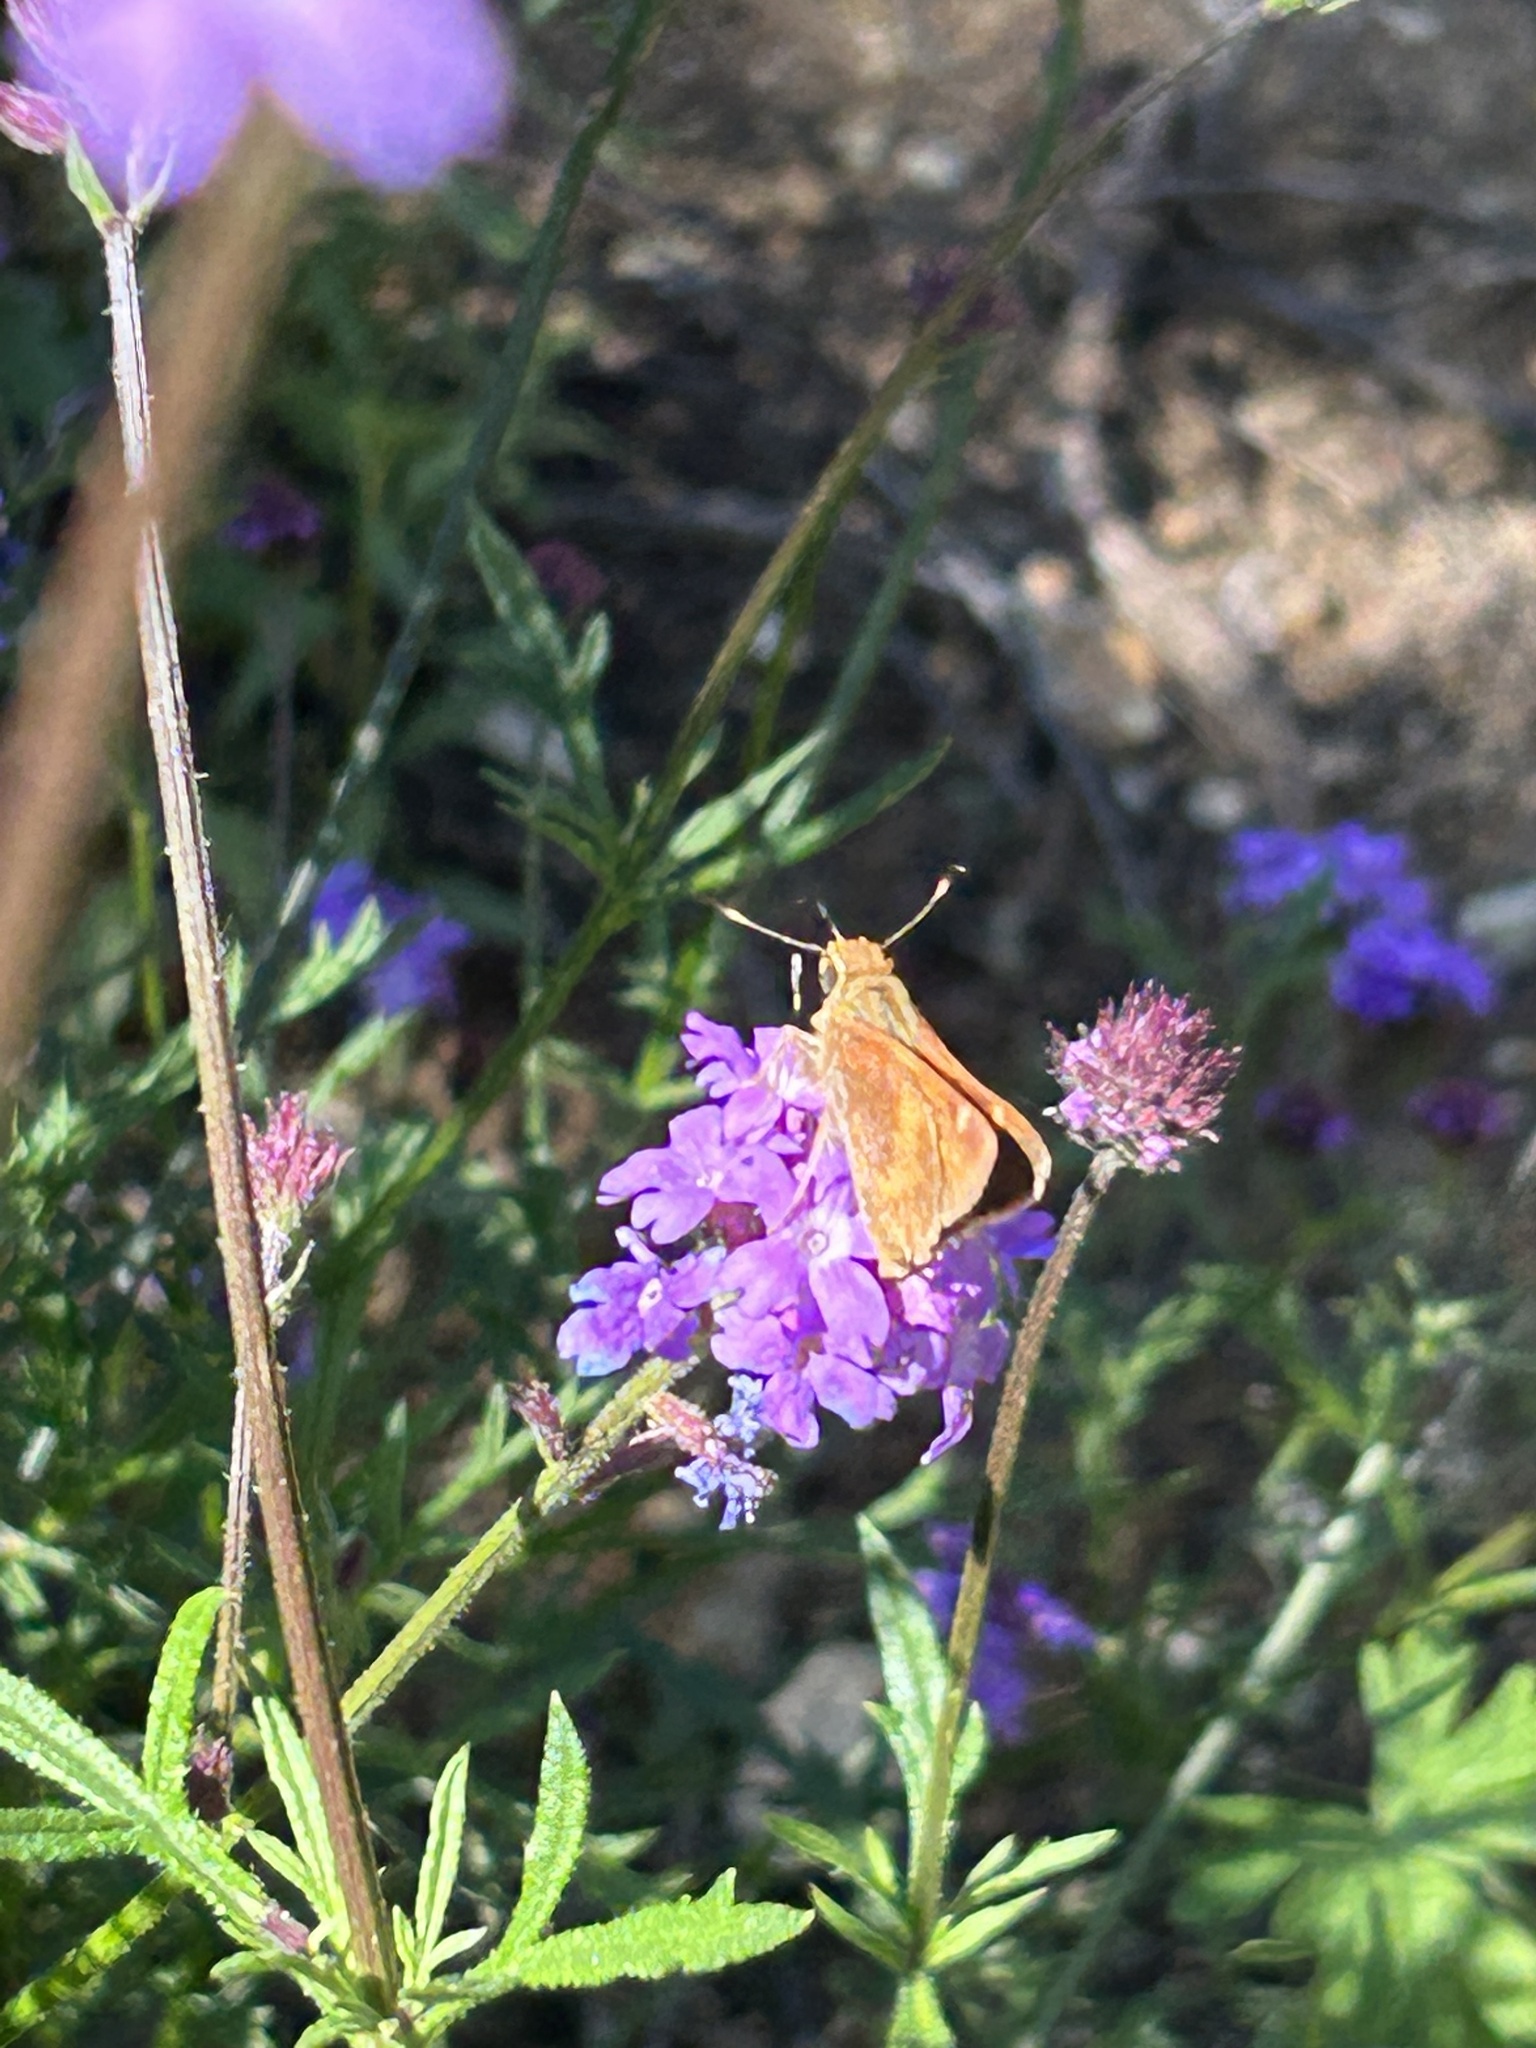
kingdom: Animalia
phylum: Arthropoda
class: Insecta
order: Lepidoptera
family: Hesperiidae
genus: Lon
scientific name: Lon melane
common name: Umber skipper
